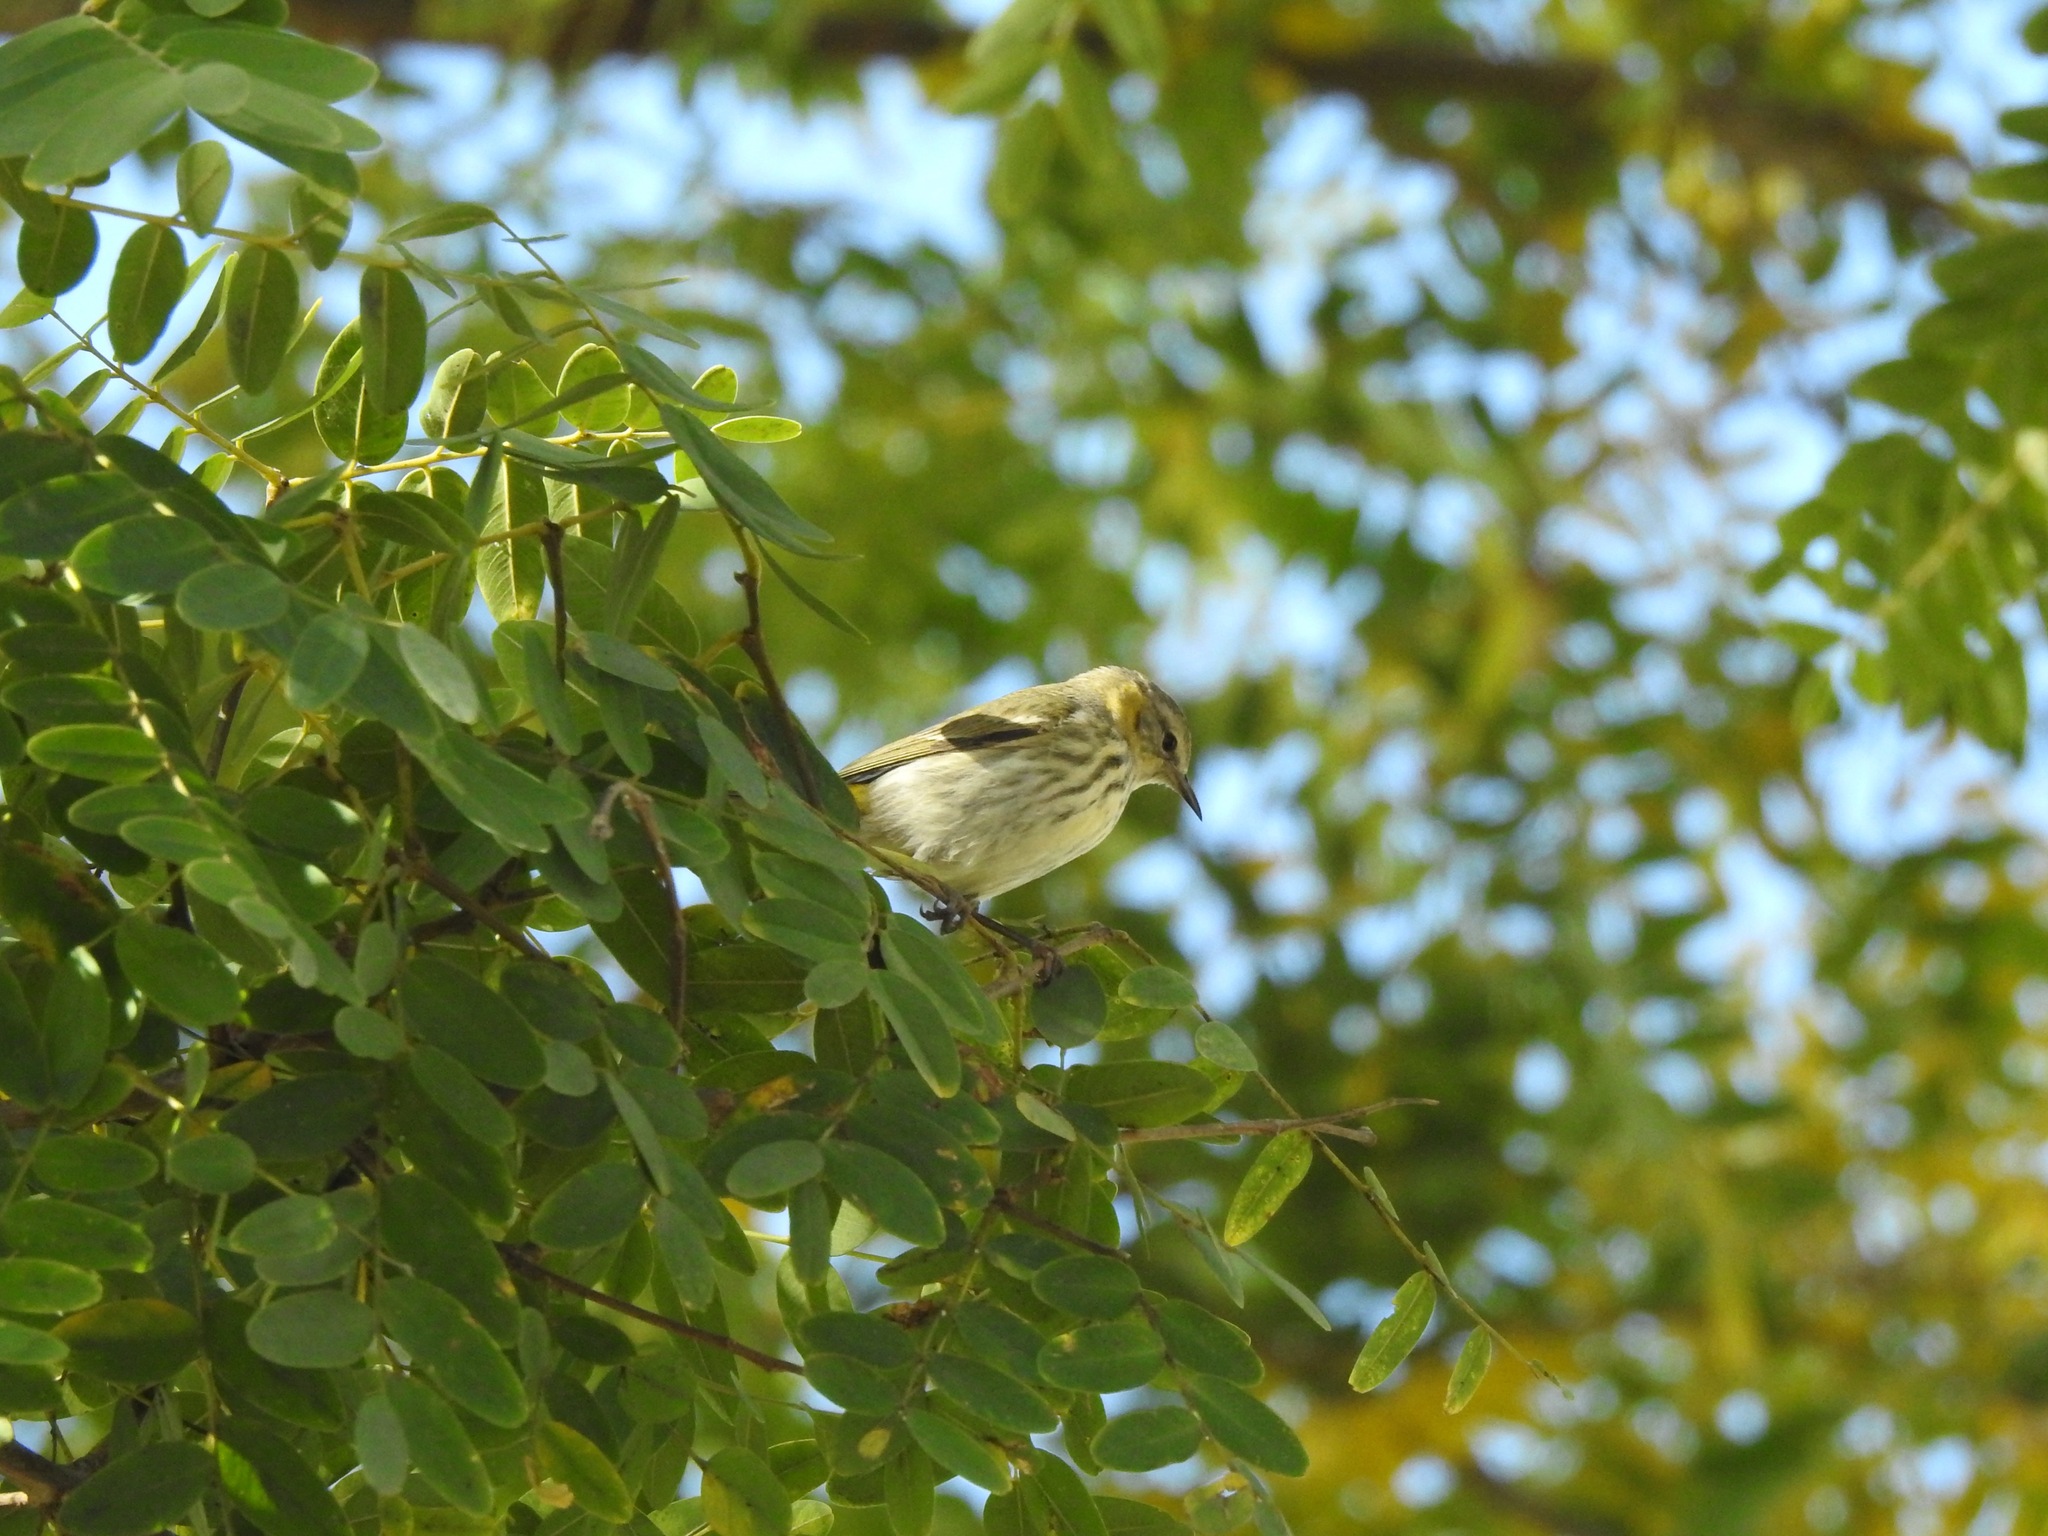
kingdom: Animalia
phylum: Chordata
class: Aves
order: Passeriformes
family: Parulidae
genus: Setophaga
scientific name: Setophaga tigrina
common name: Cape may warbler
